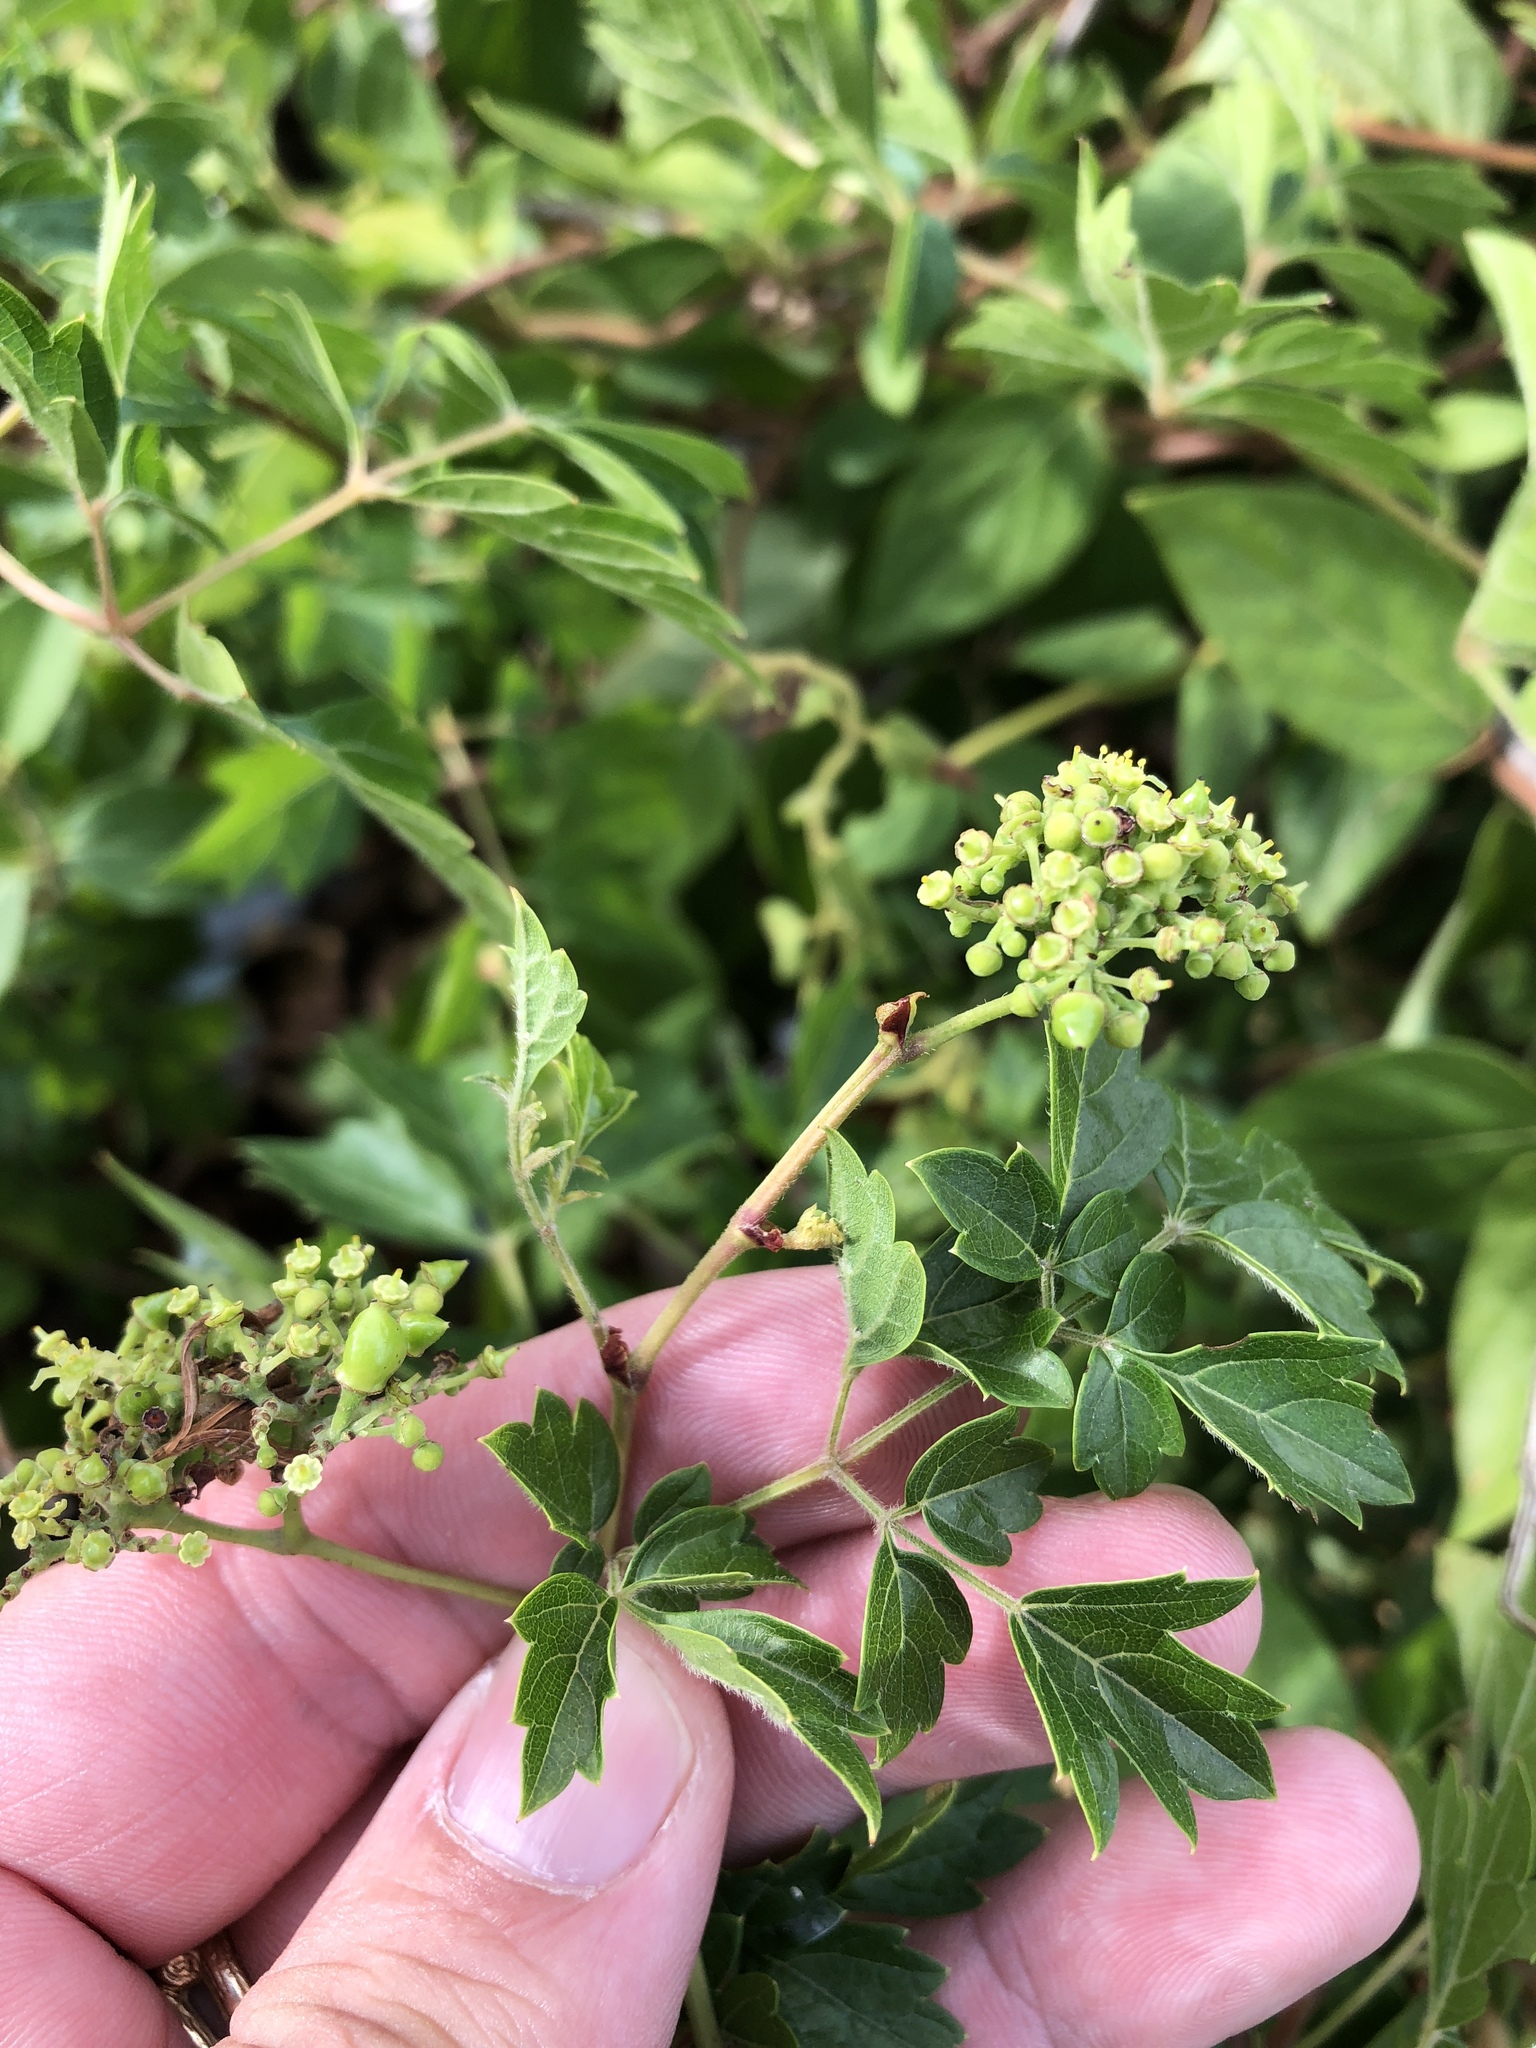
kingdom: Plantae
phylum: Tracheophyta
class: Magnoliopsida
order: Vitales
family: Vitaceae
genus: Nekemias
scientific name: Nekemias arborea
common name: Peppervine
